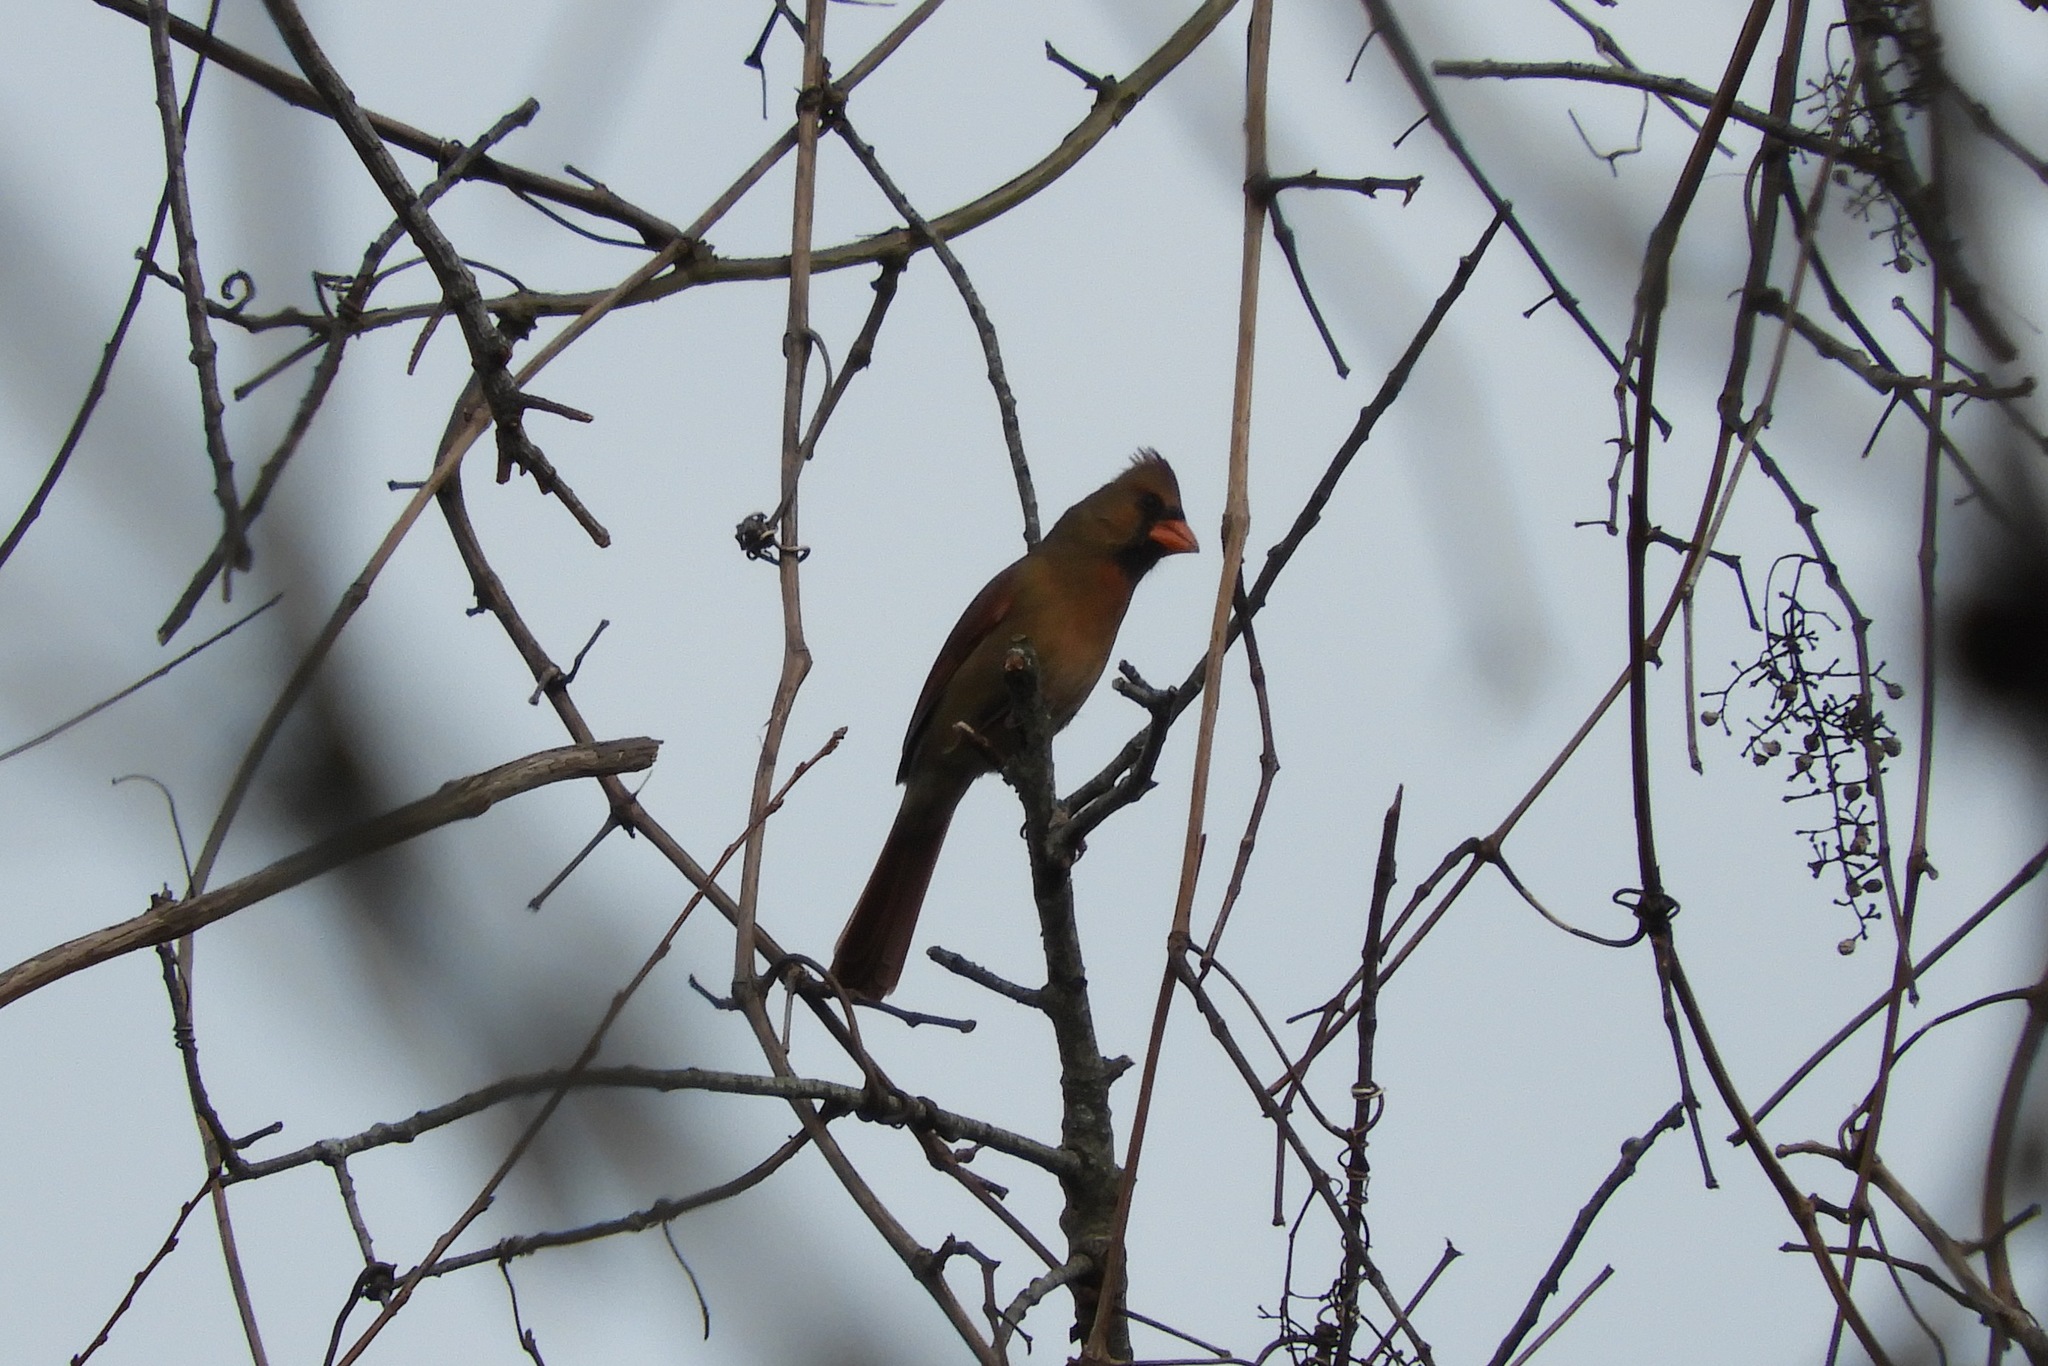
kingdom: Animalia
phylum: Chordata
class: Aves
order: Passeriformes
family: Cardinalidae
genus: Cardinalis
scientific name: Cardinalis cardinalis
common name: Northern cardinal
